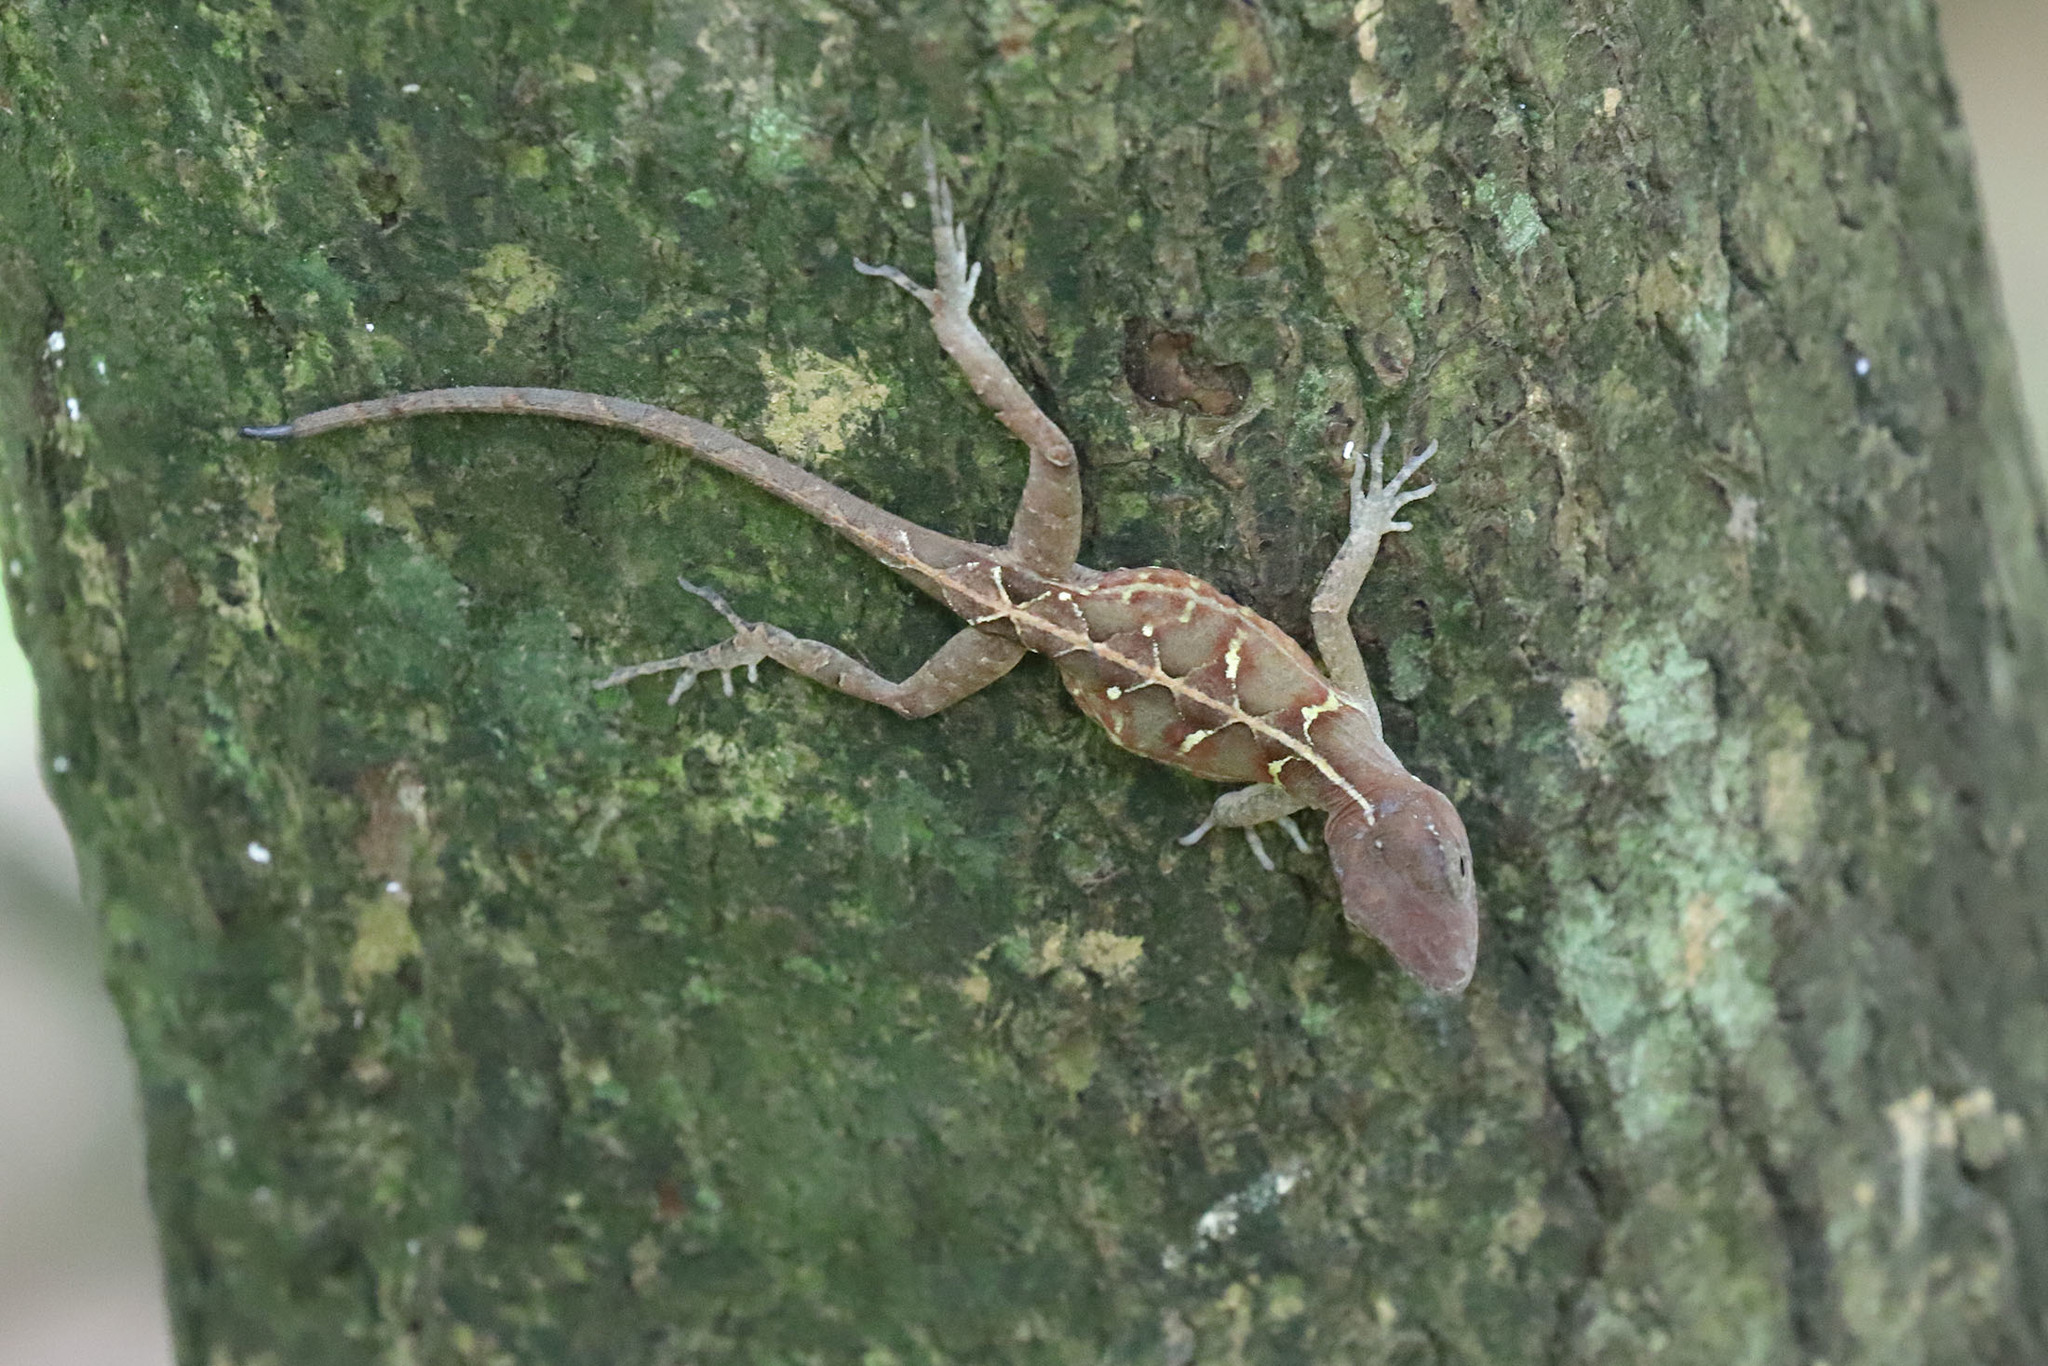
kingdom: Animalia
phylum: Chordata
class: Squamata
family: Dactyloidae
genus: Anolis
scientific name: Anolis hispaniolae
